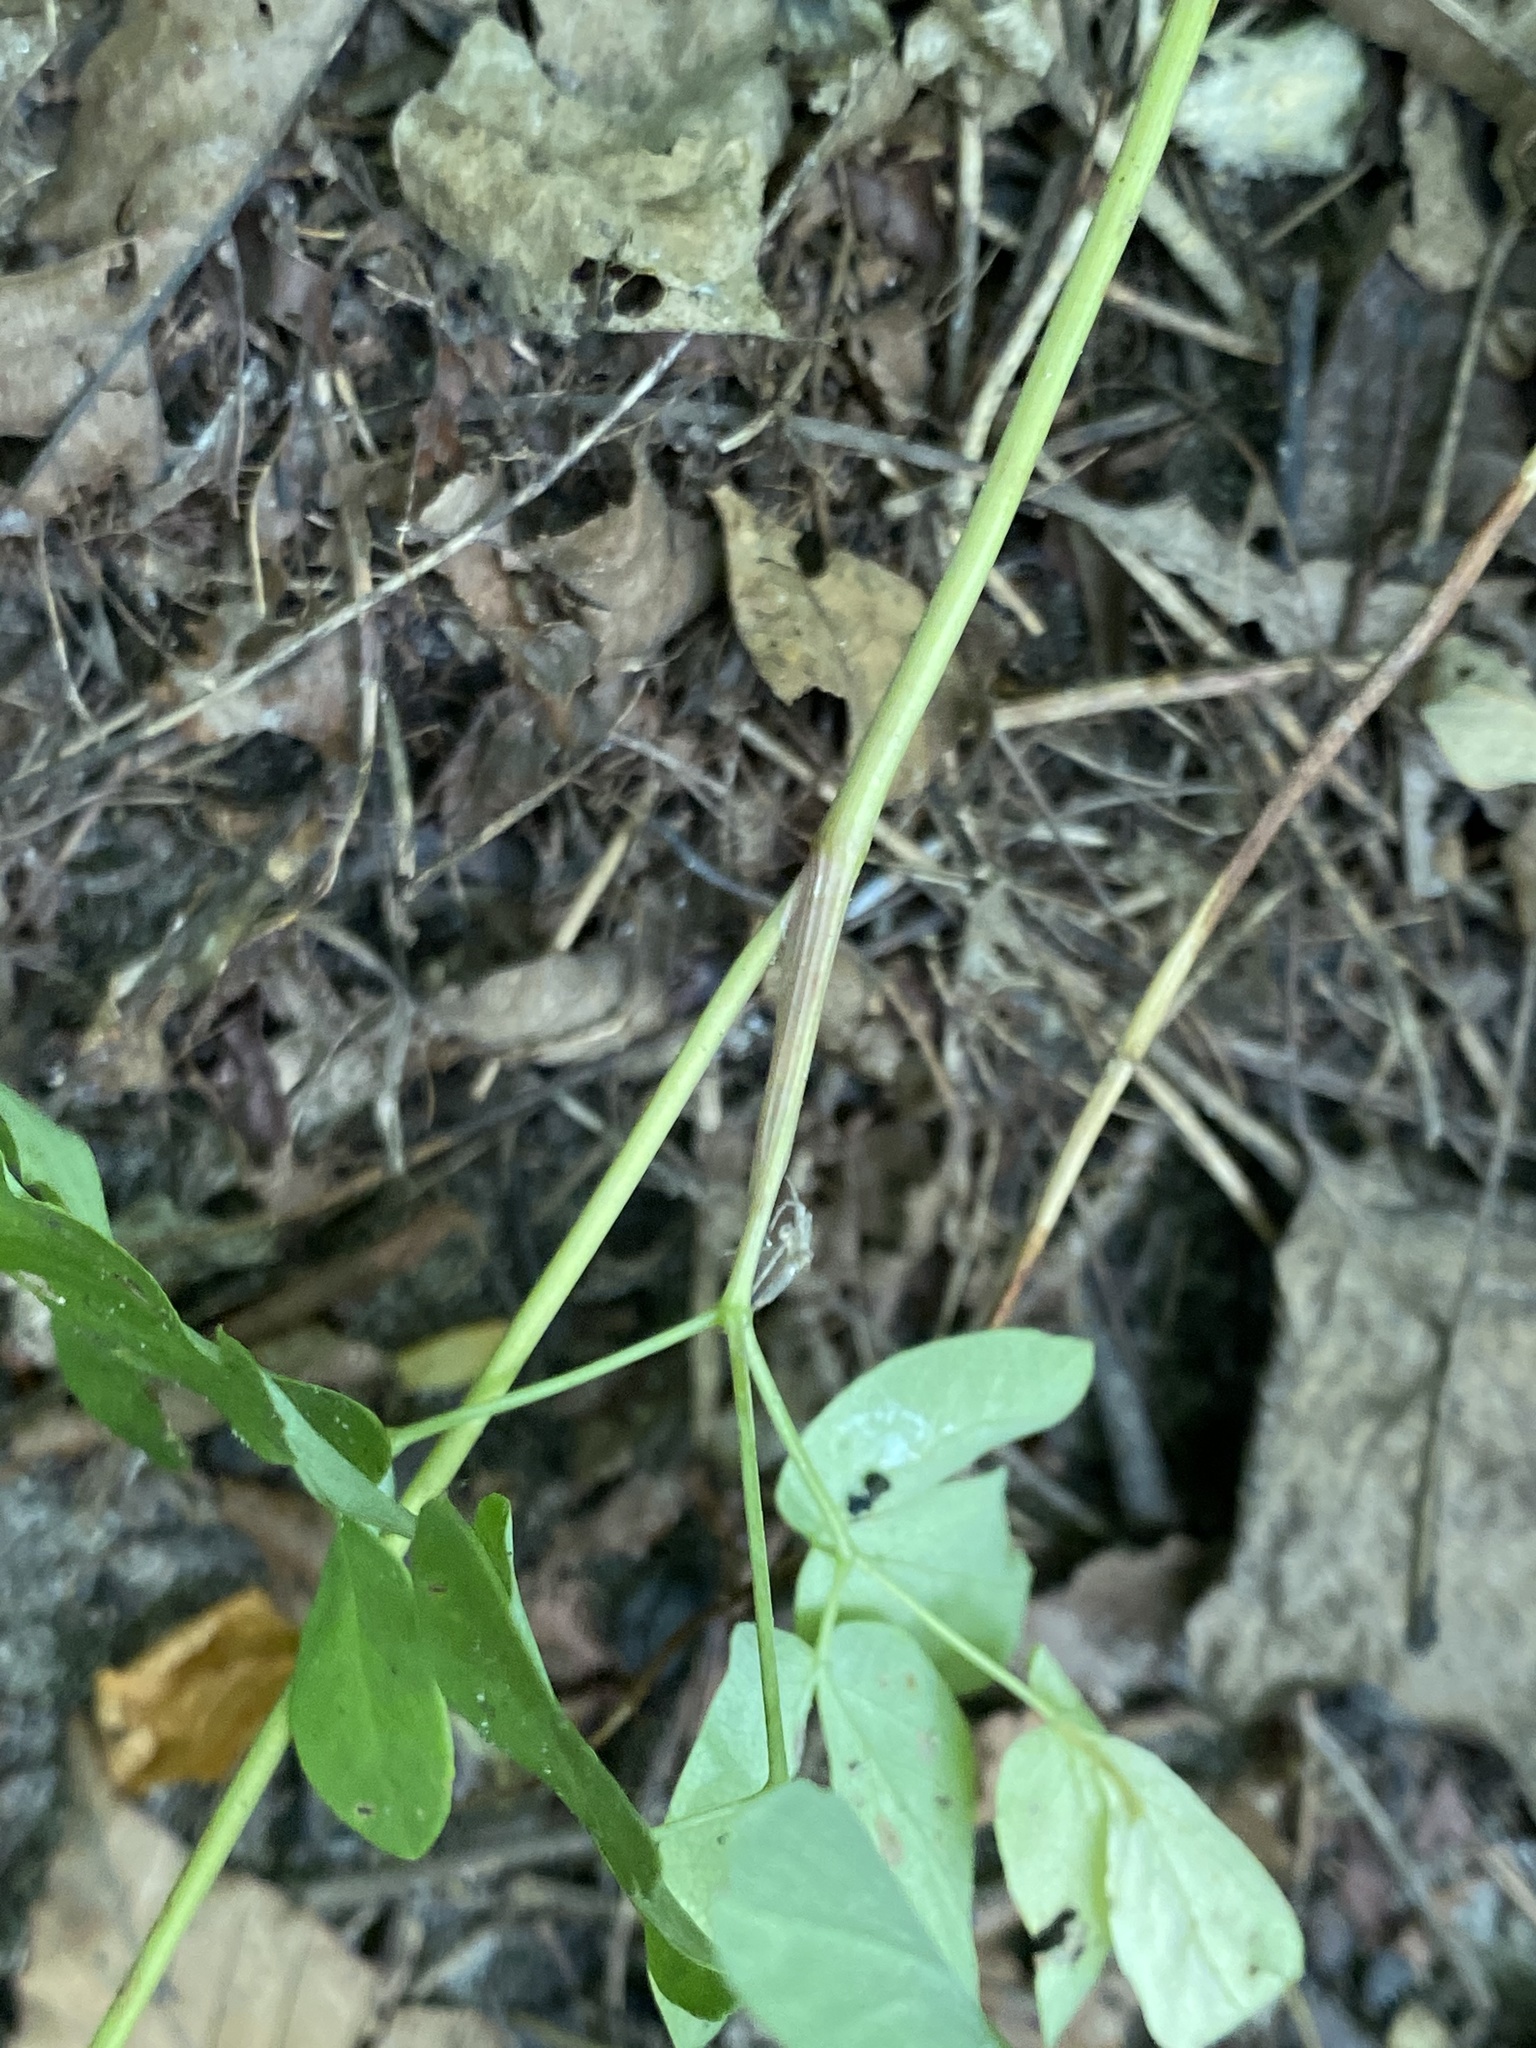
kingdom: Plantae
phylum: Tracheophyta
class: Magnoliopsida
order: Apiales
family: Apiaceae
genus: Taenidia
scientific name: Taenidia integerrima
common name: Golden alexander
